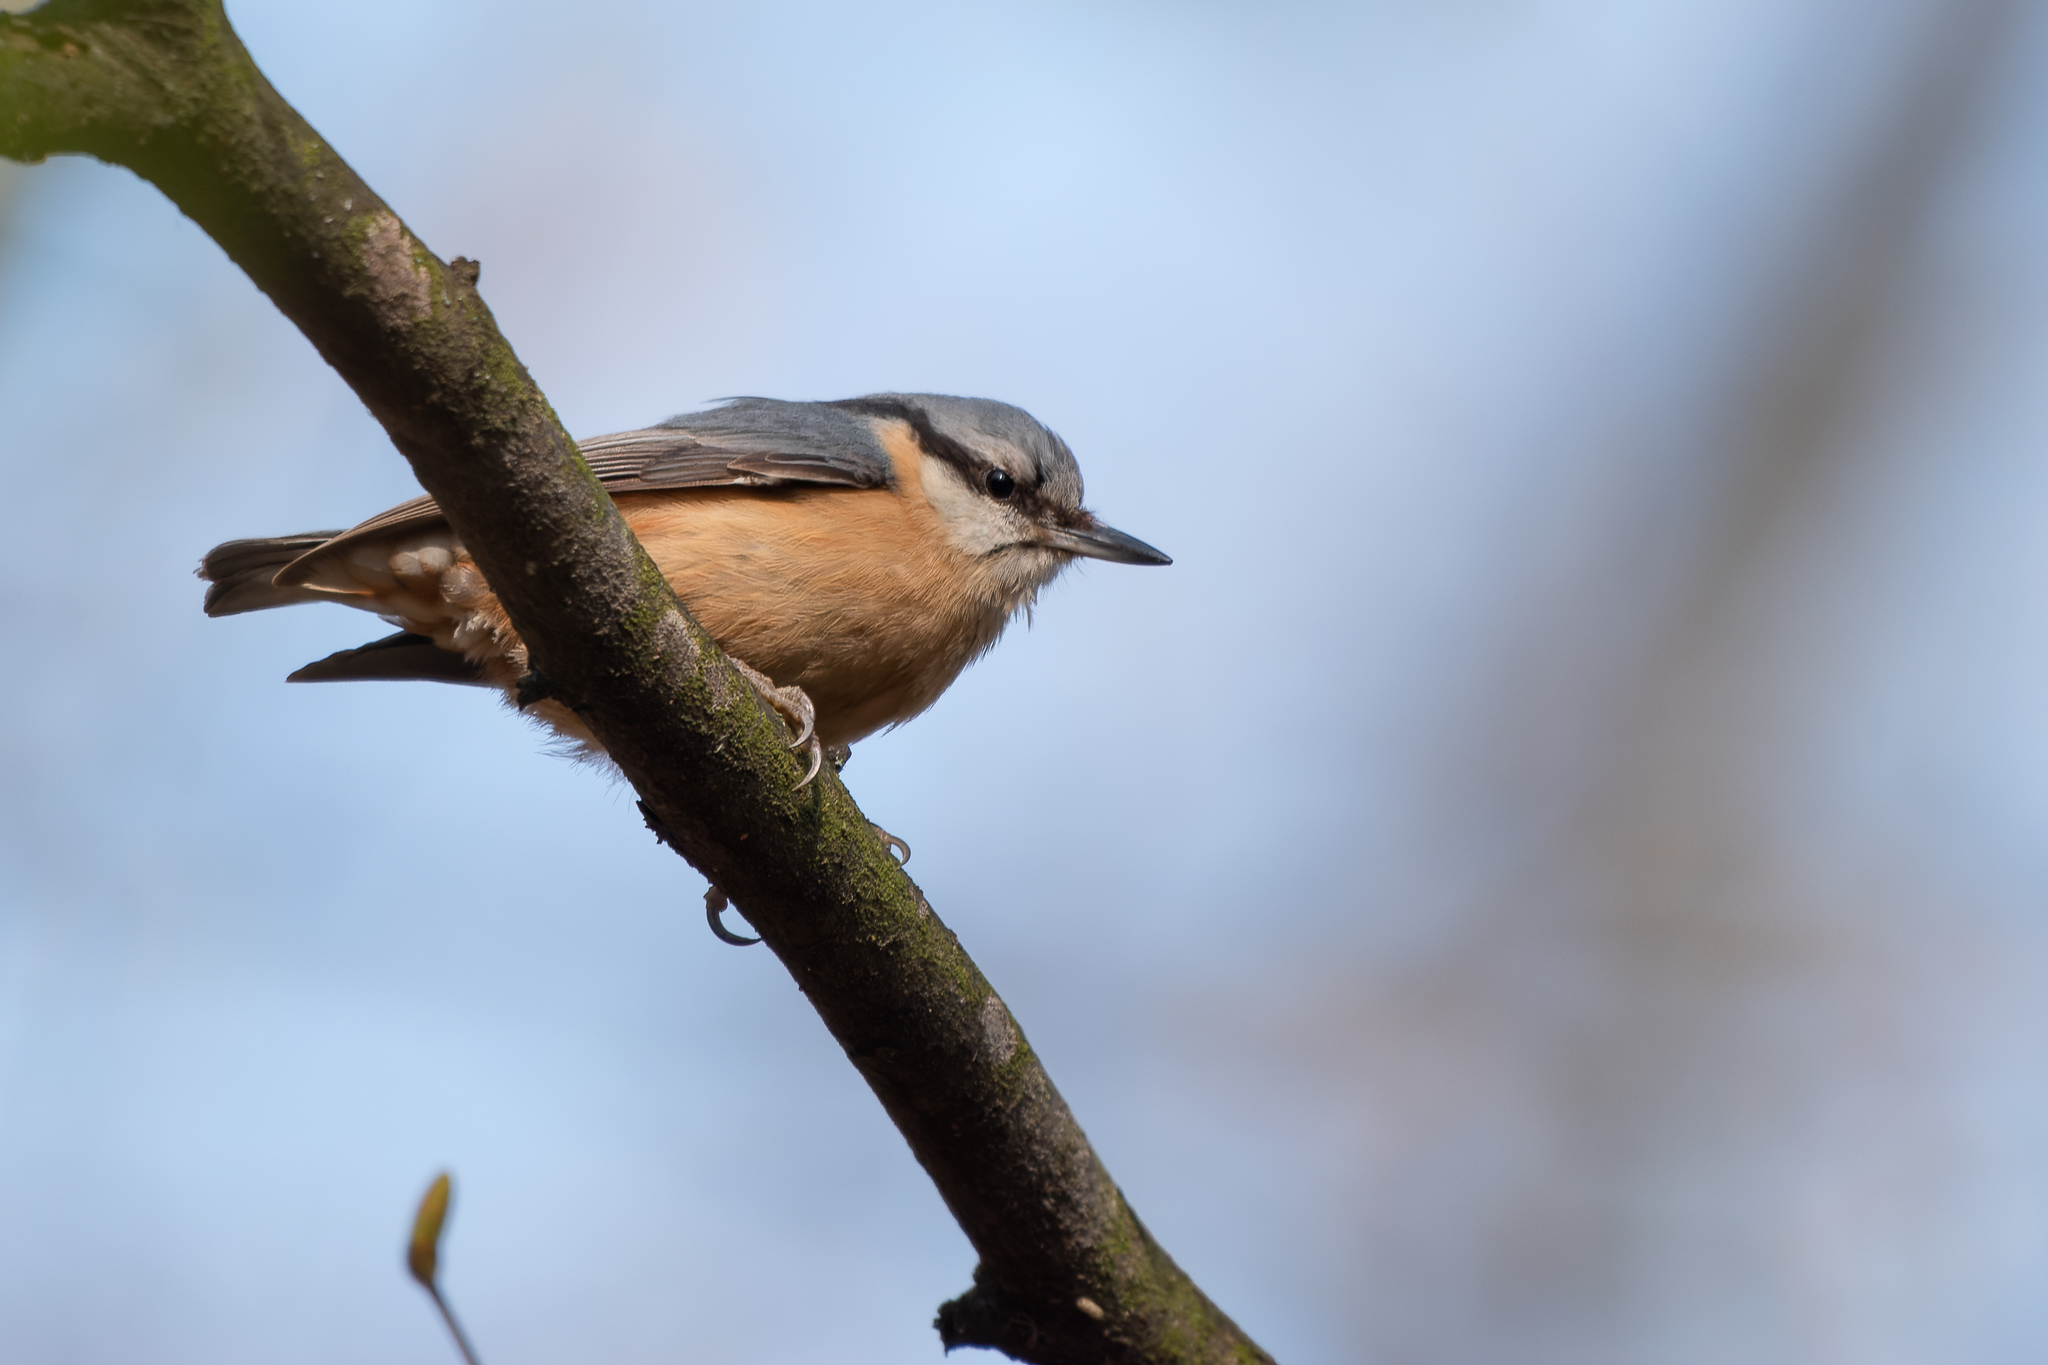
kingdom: Animalia
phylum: Chordata
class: Aves
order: Passeriformes
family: Sittidae
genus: Sitta
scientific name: Sitta europaea
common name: Eurasian nuthatch
